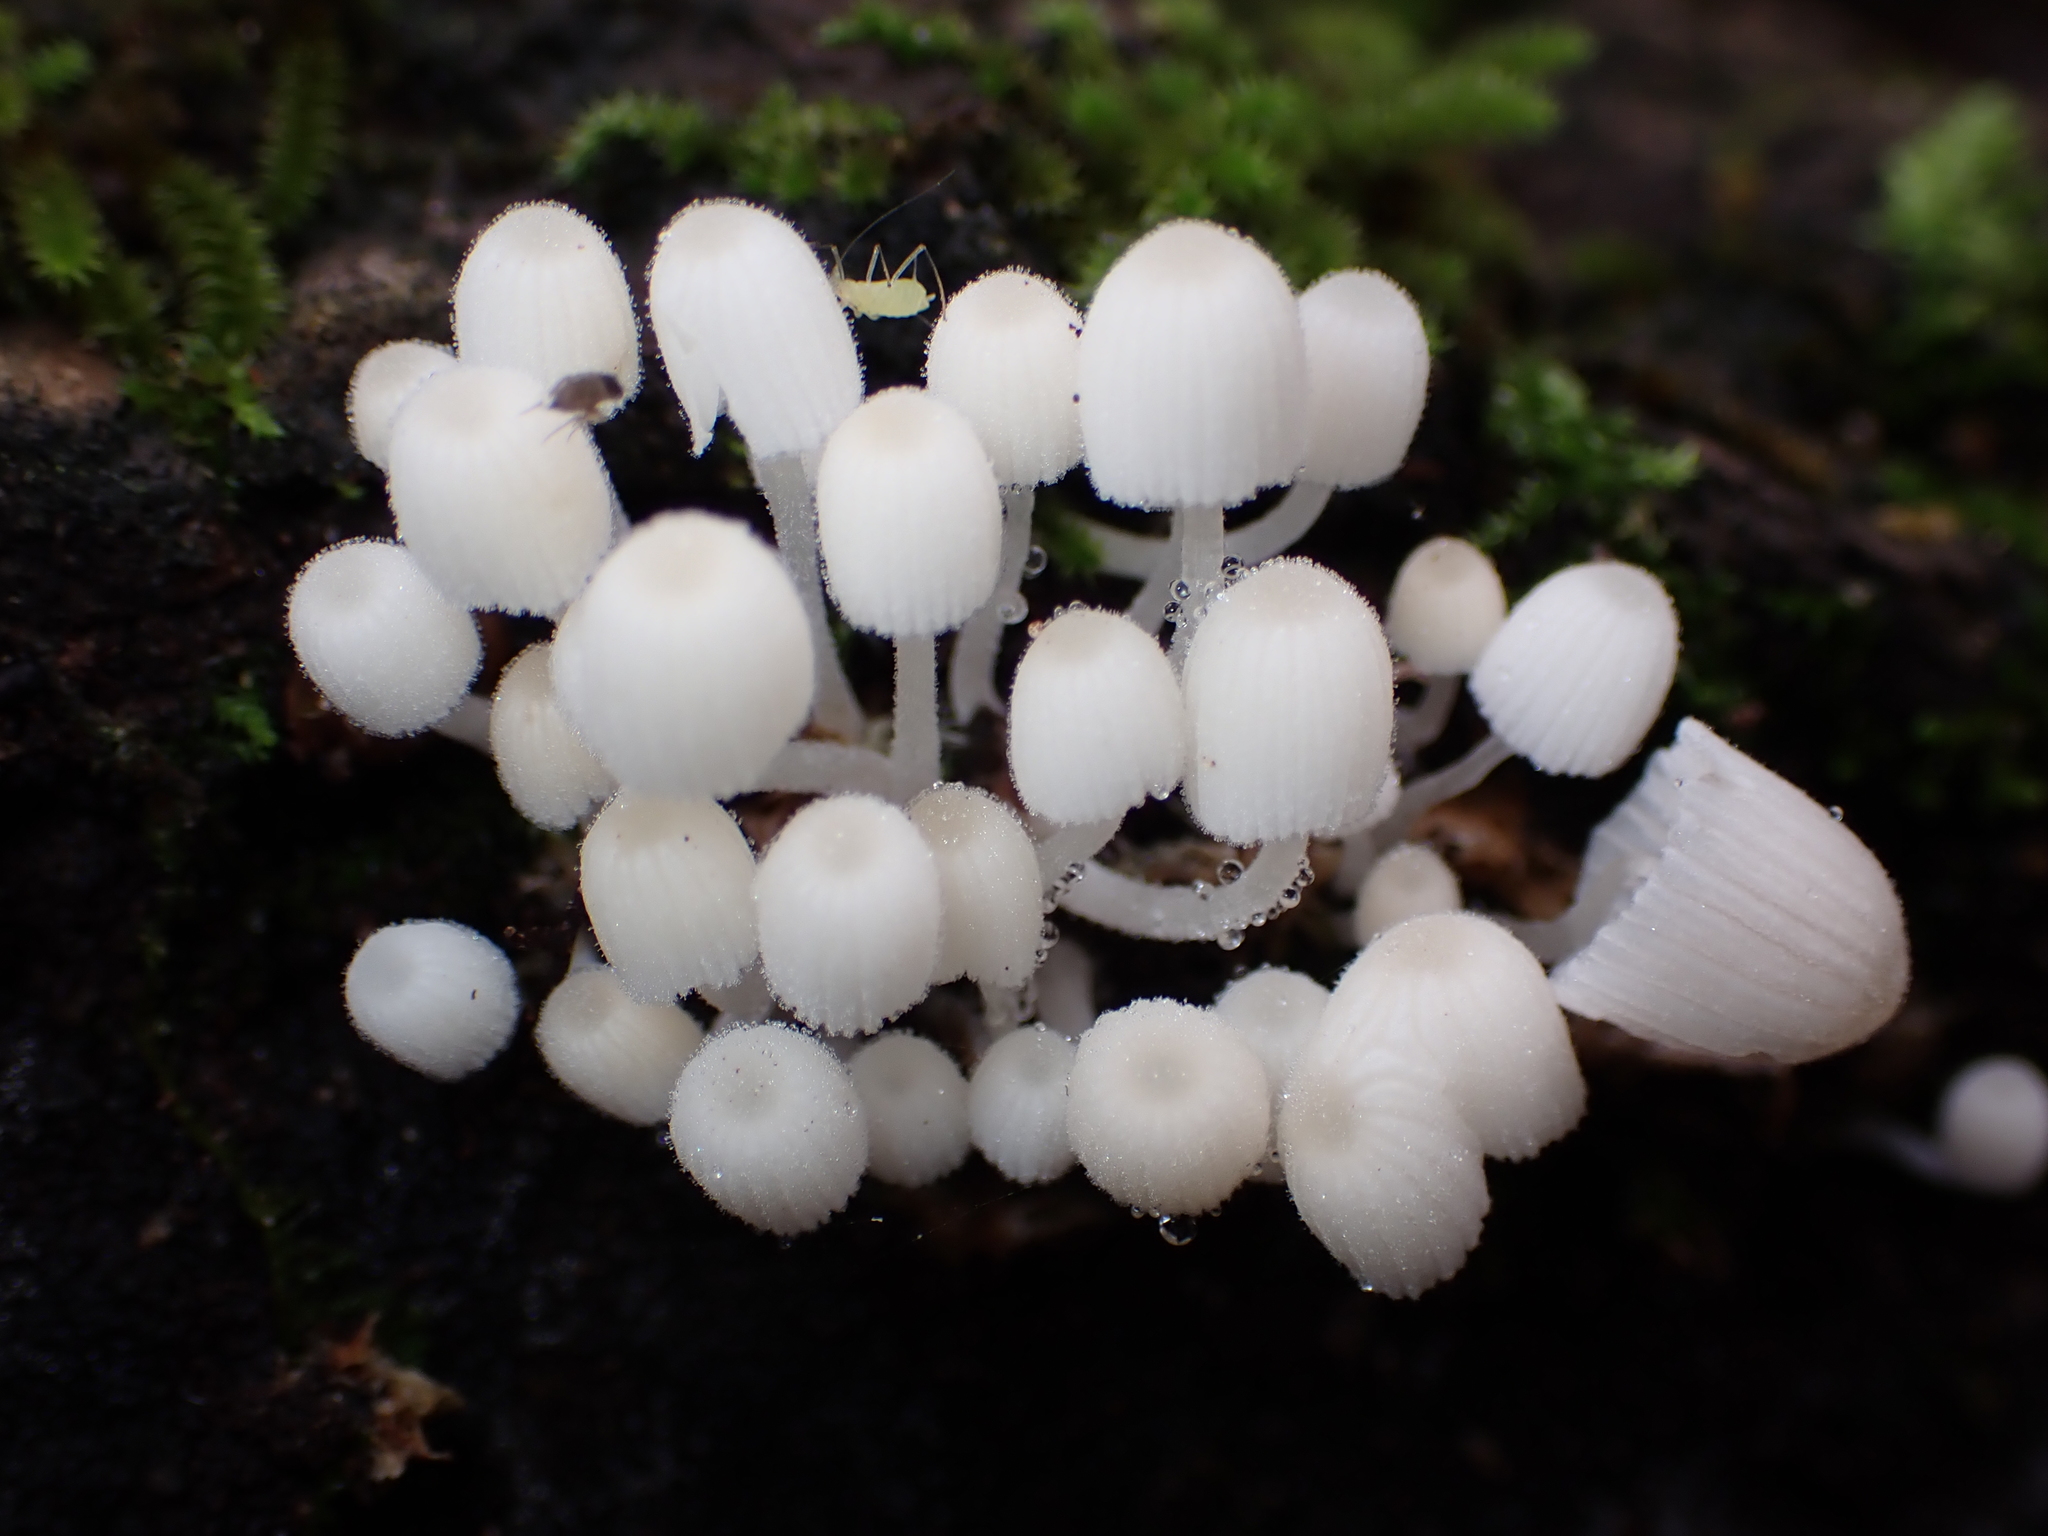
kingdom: Fungi
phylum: Basidiomycota
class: Agaricomycetes
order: Agaricales
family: Psathyrellaceae
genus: Coprinellus
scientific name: Coprinellus disseminatus
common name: Fairies' bonnets
